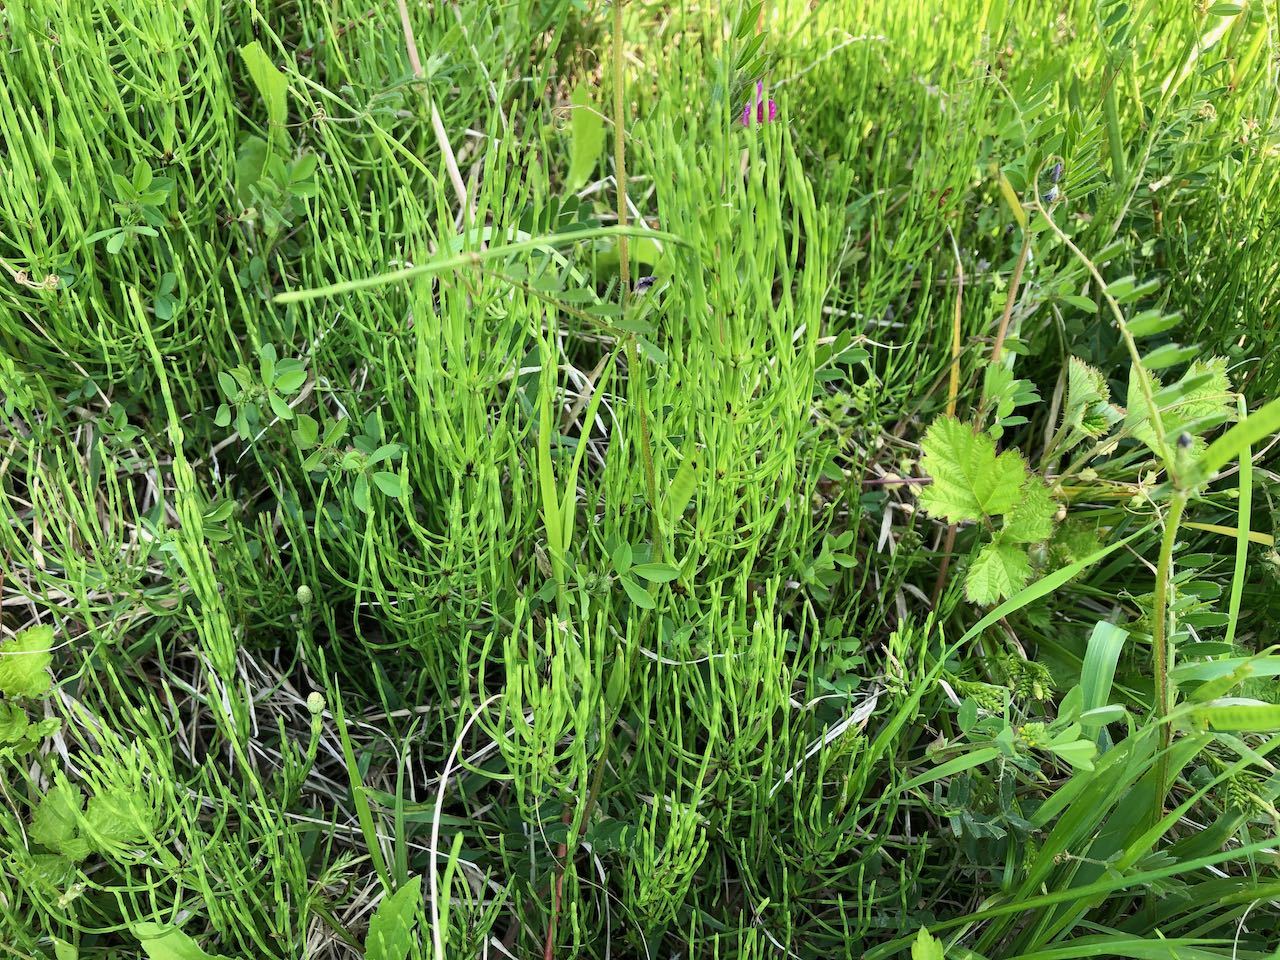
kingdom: Plantae
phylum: Tracheophyta
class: Polypodiopsida
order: Equisetales
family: Equisetaceae
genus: Equisetum
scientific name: Equisetum arvense
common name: Field horsetail
